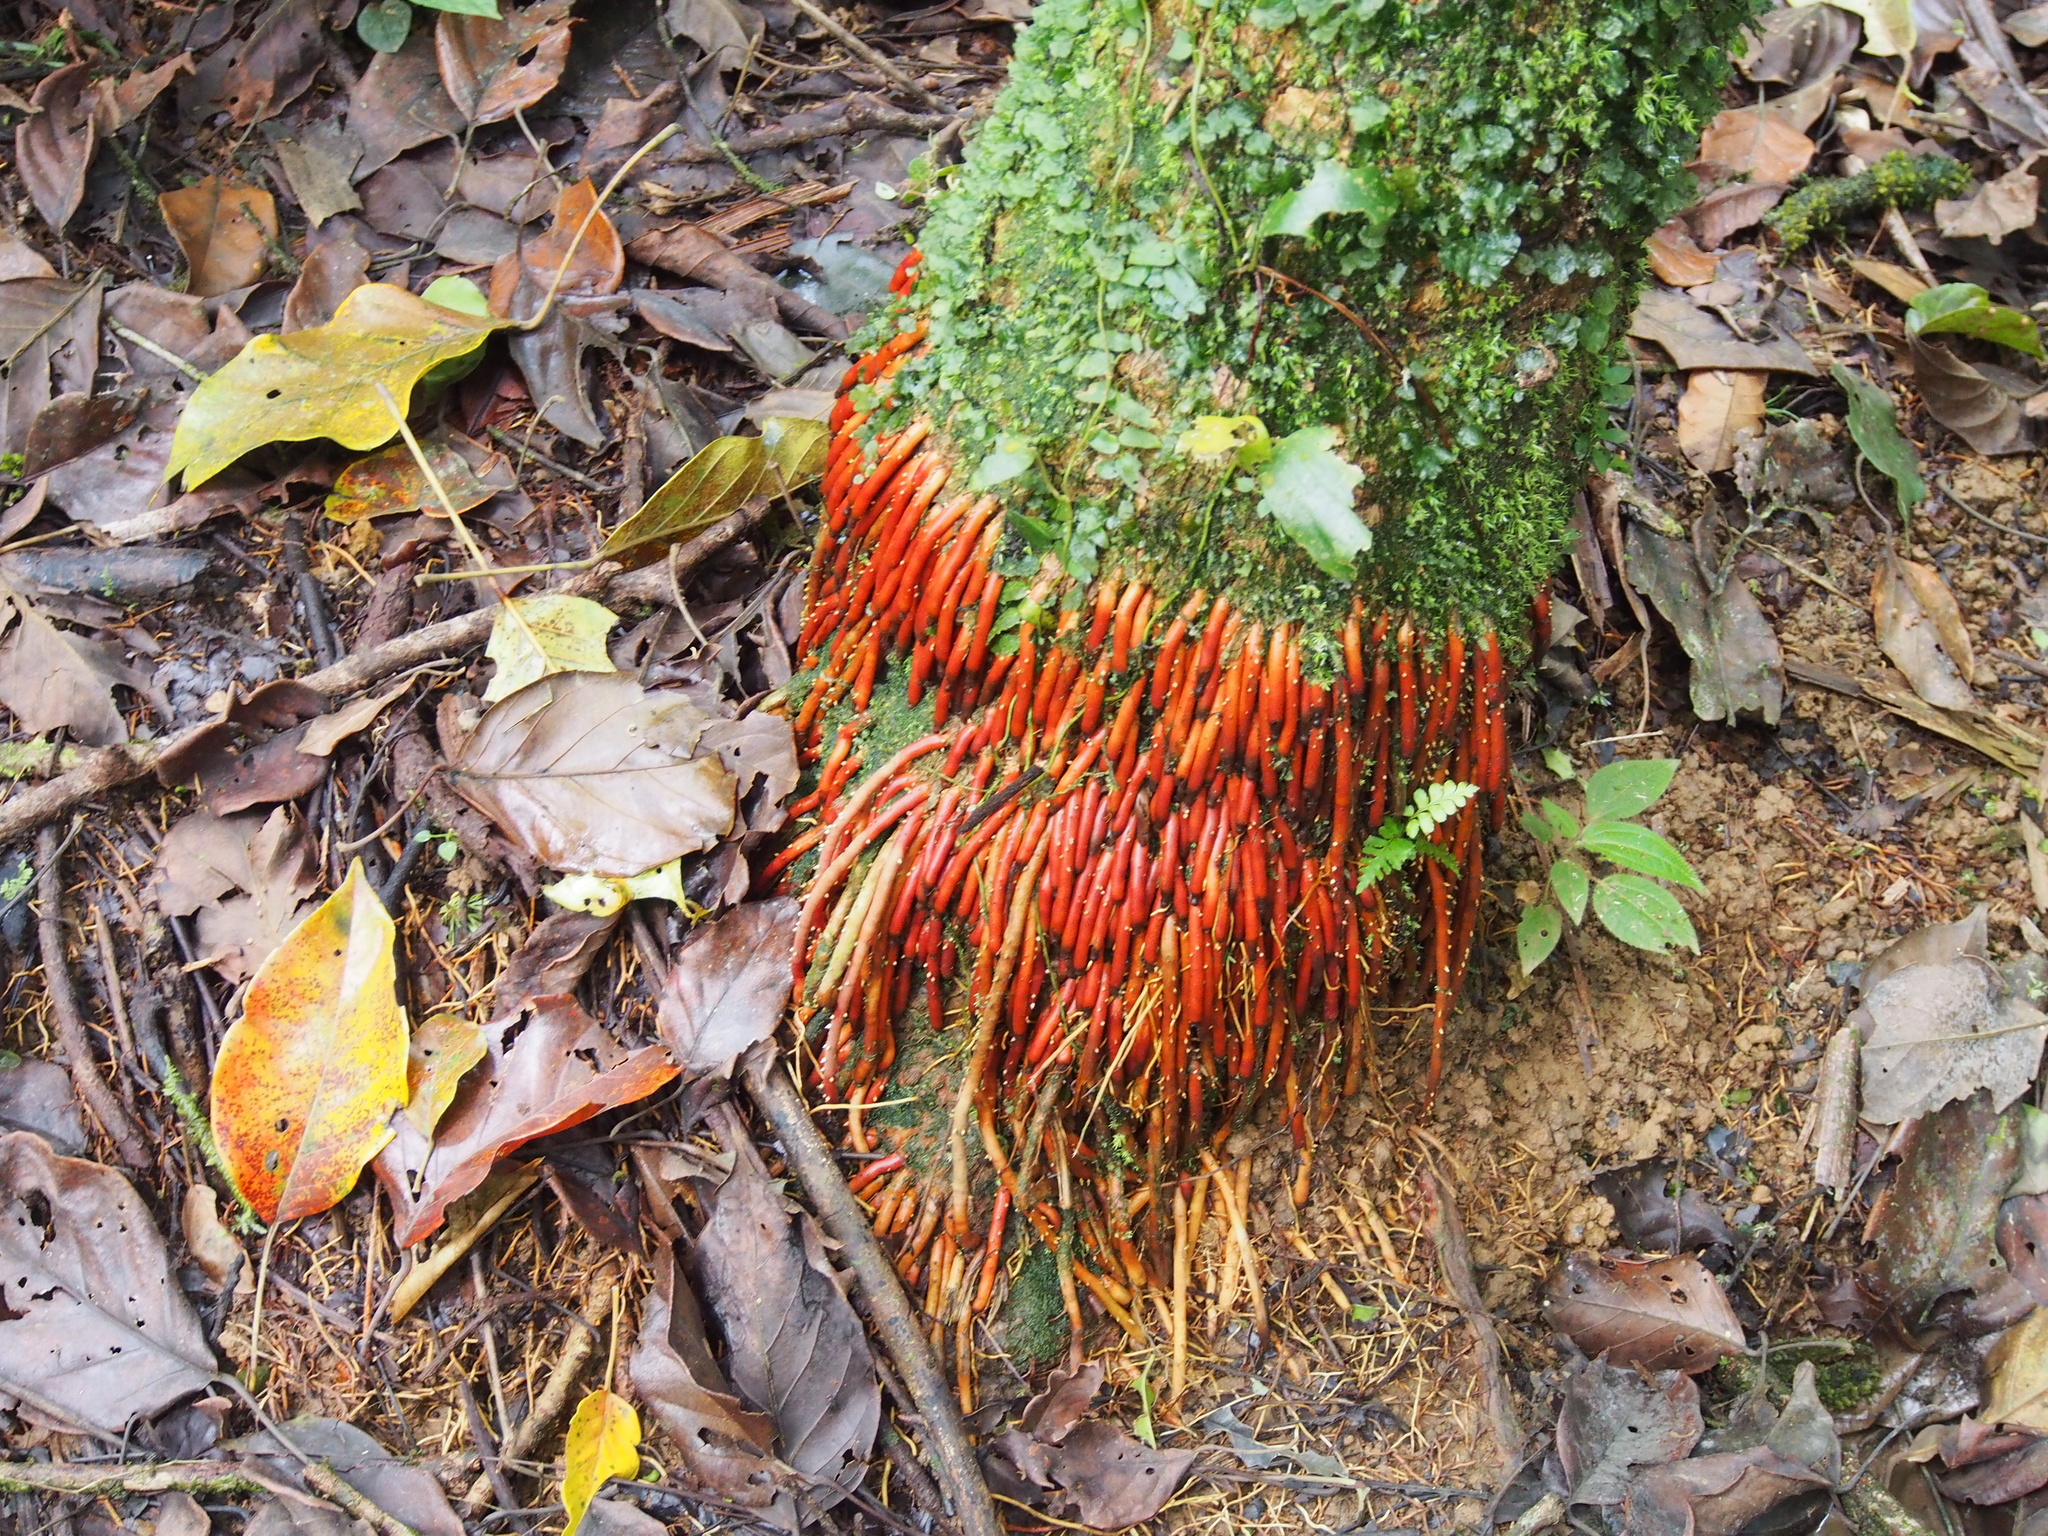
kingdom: Plantae
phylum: Tracheophyta
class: Liliopsida
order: Arecales
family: Arecaceae
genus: Geonoma
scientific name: Geonoma interrupta
